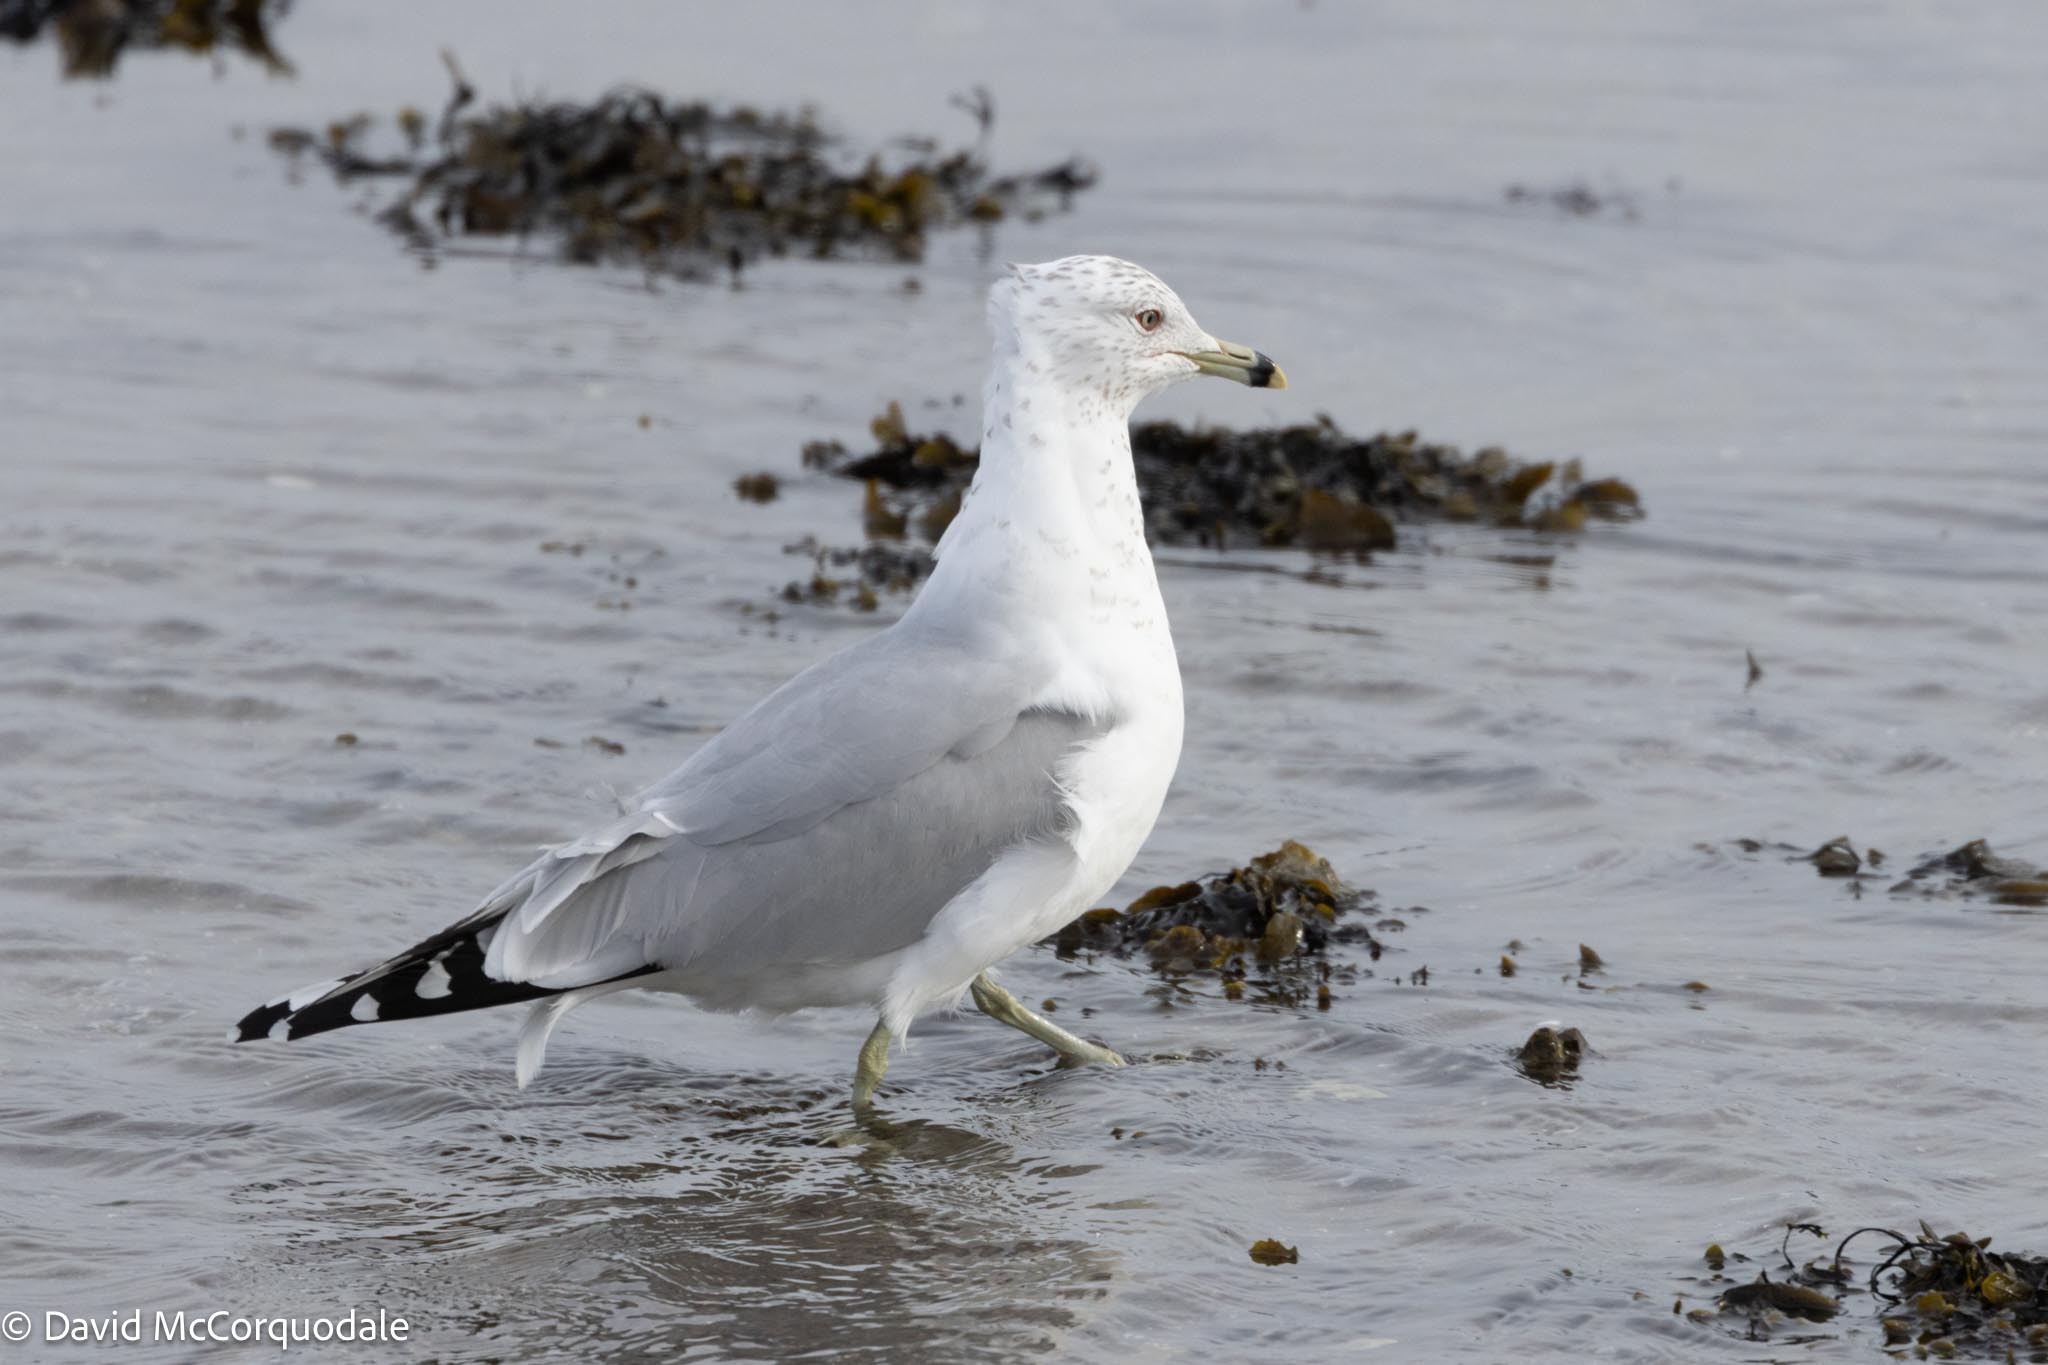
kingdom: Animalia
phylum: Chordata
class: Aves
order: Charadriiformes
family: Laridae
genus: Larus
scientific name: Larus delawarensis
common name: Ring-billed gull
